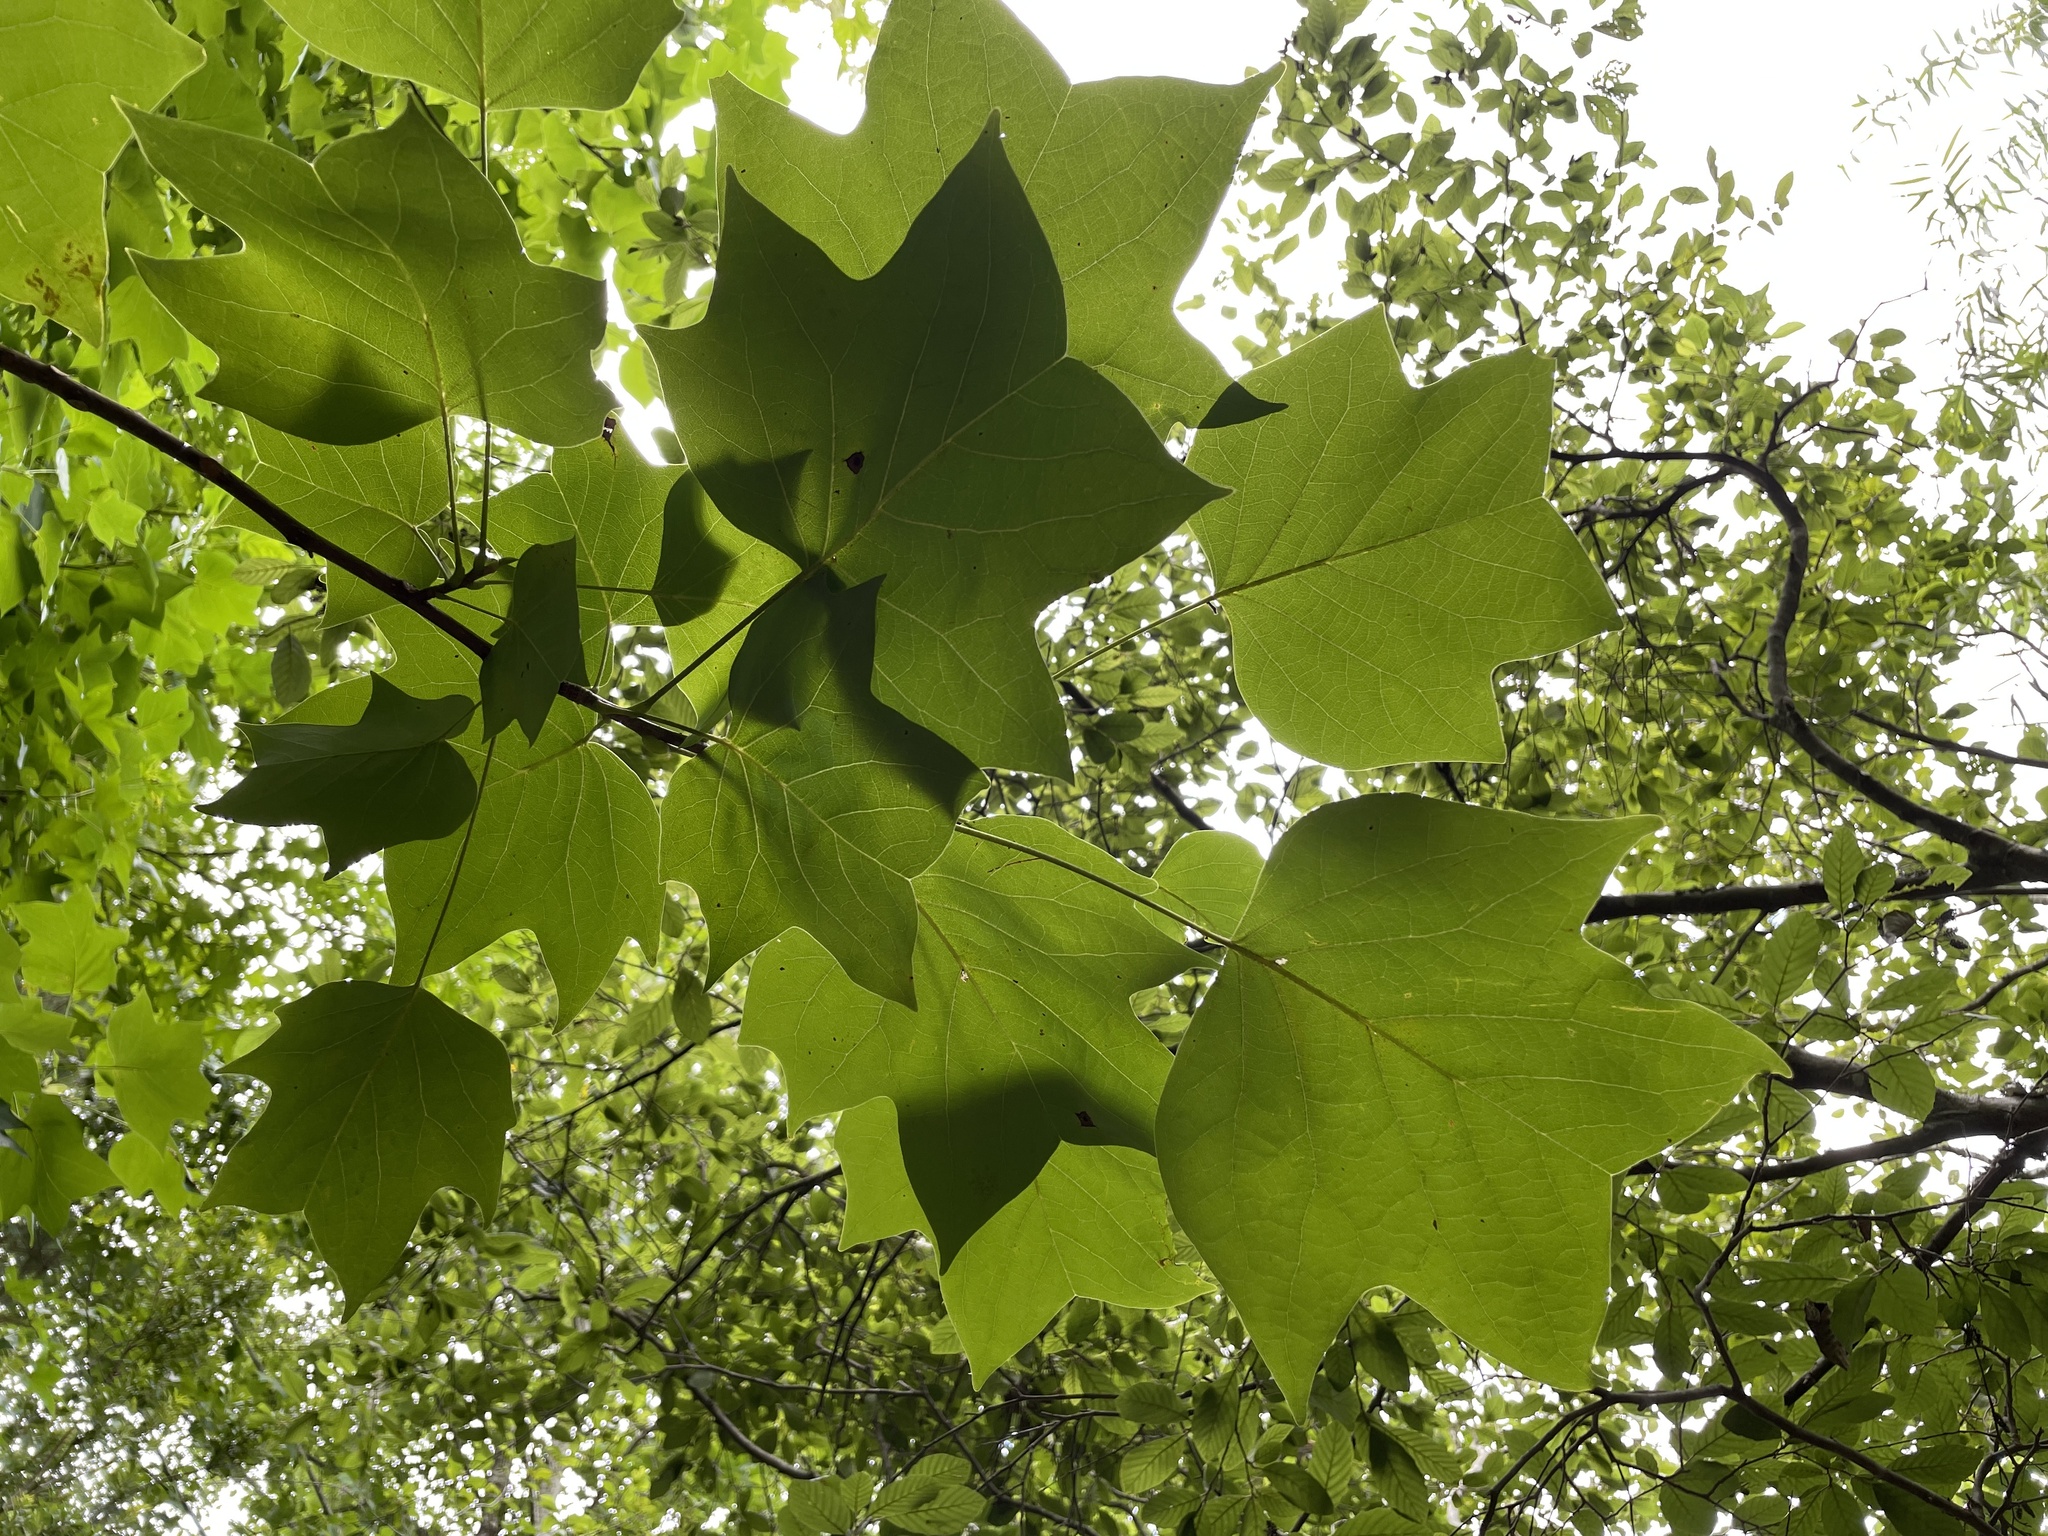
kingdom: Plantae
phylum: Tracheophyta
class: Magnoliopsida
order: Magnoliales
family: Magnoliaceae
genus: Liriodendron
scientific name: Liriodendron tulipifera
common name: Tulip tree
